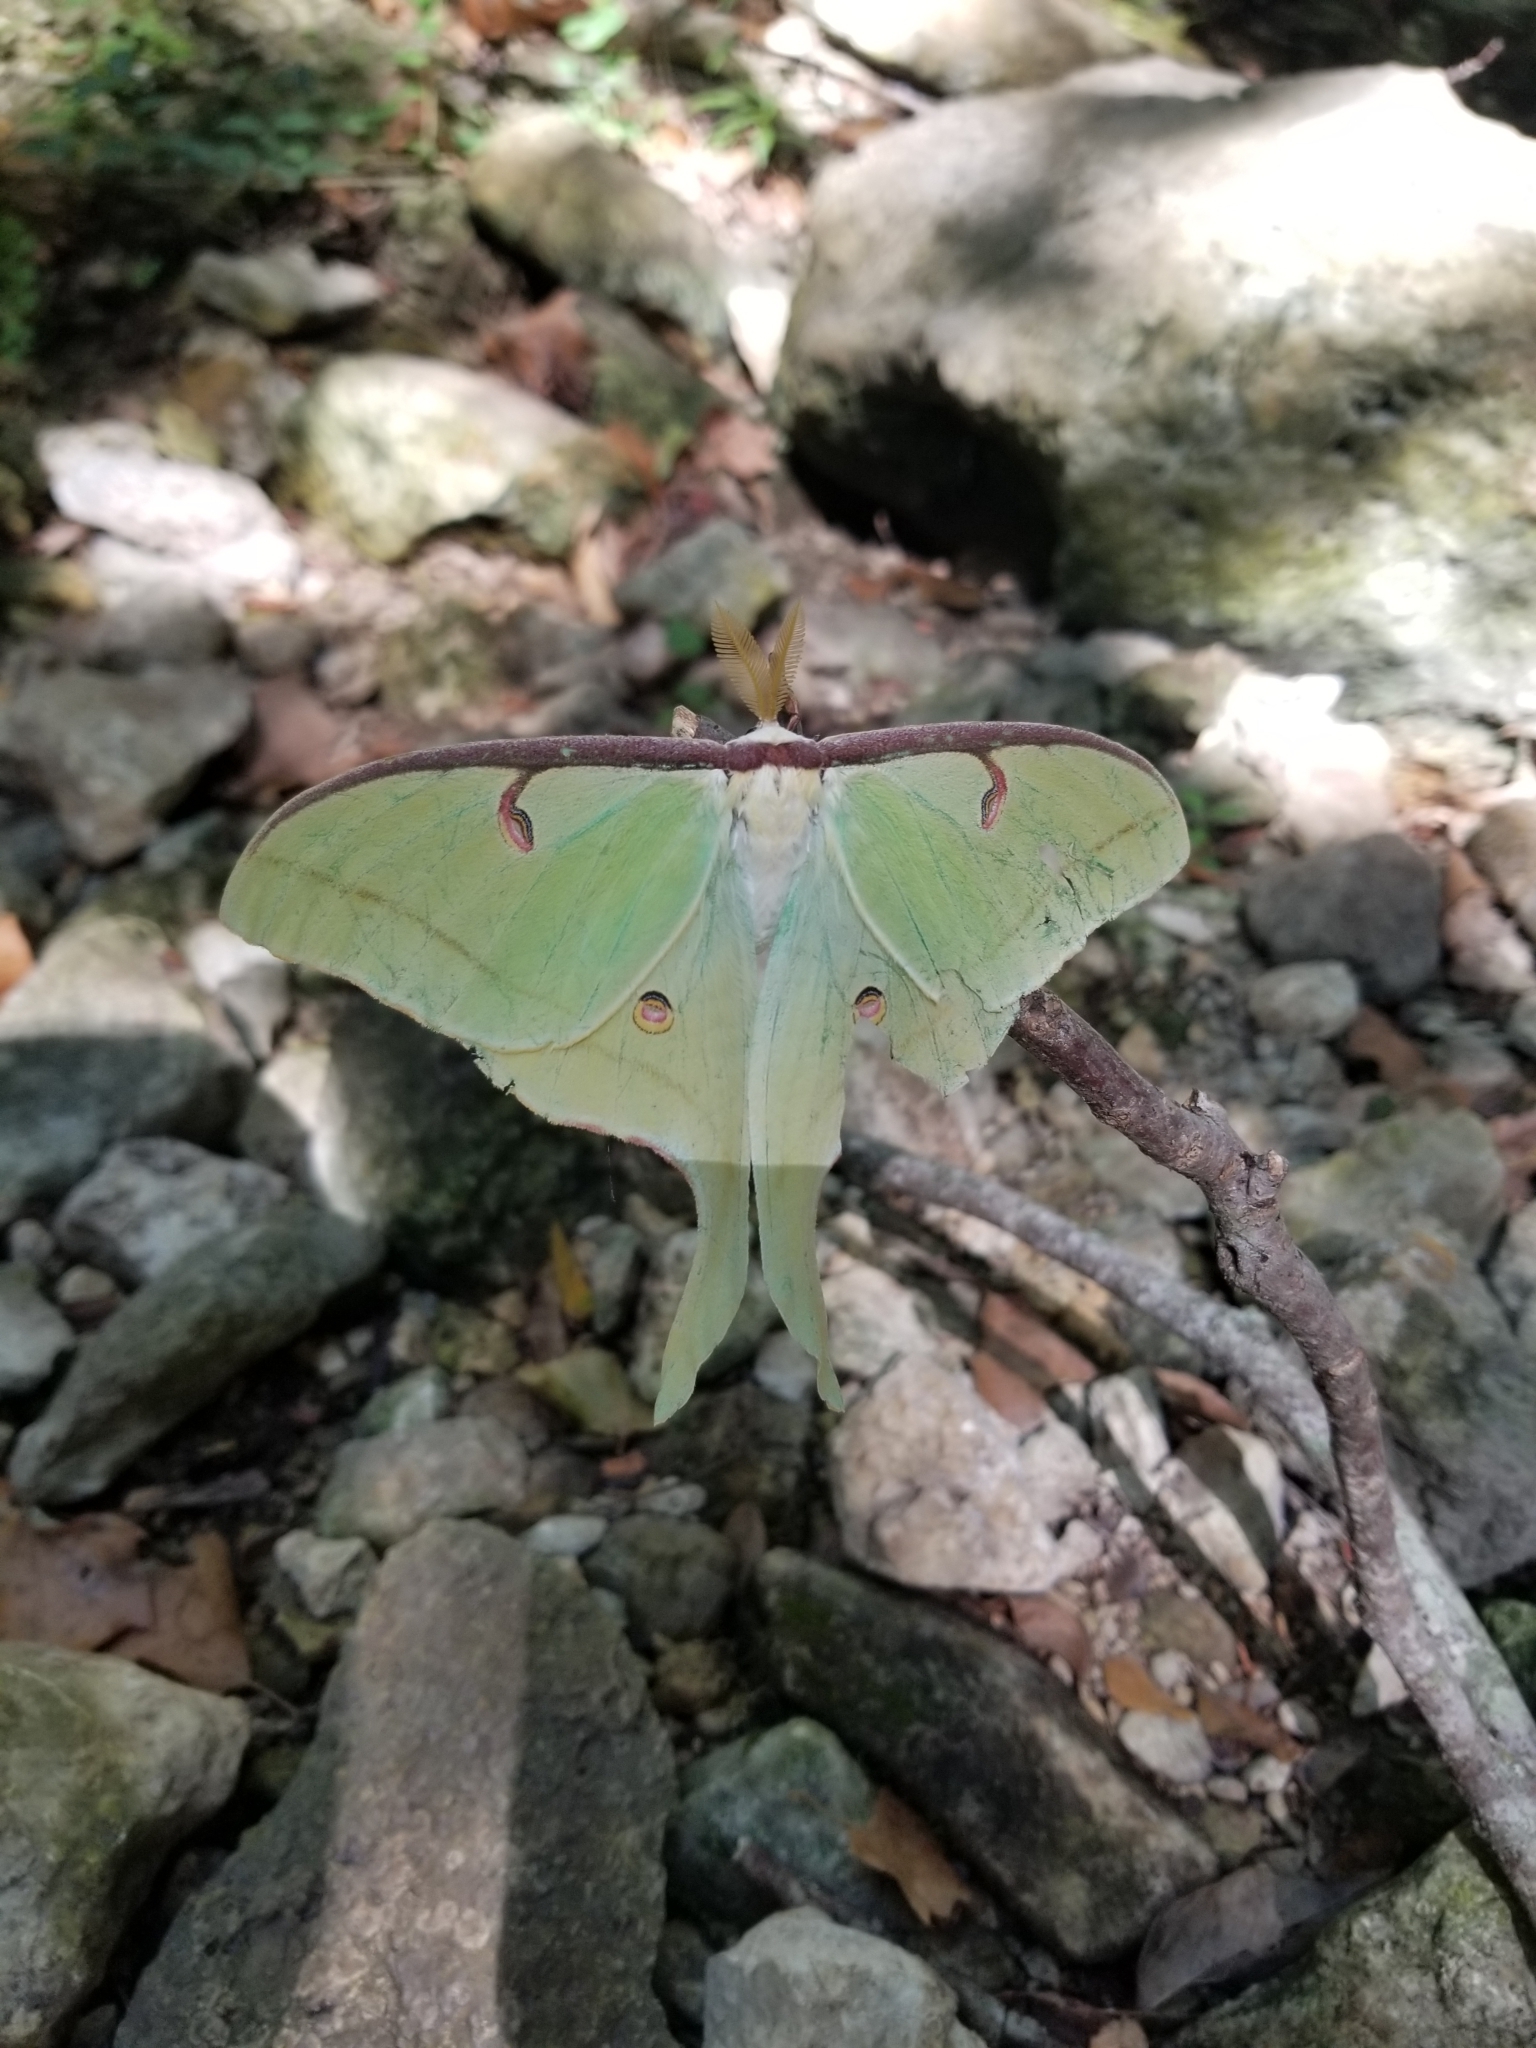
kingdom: Animalia
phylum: Arthropoda
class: Insecta
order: Lepidoptera
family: Saturniidae
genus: Actias
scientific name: Actias luna
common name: Luna moth
